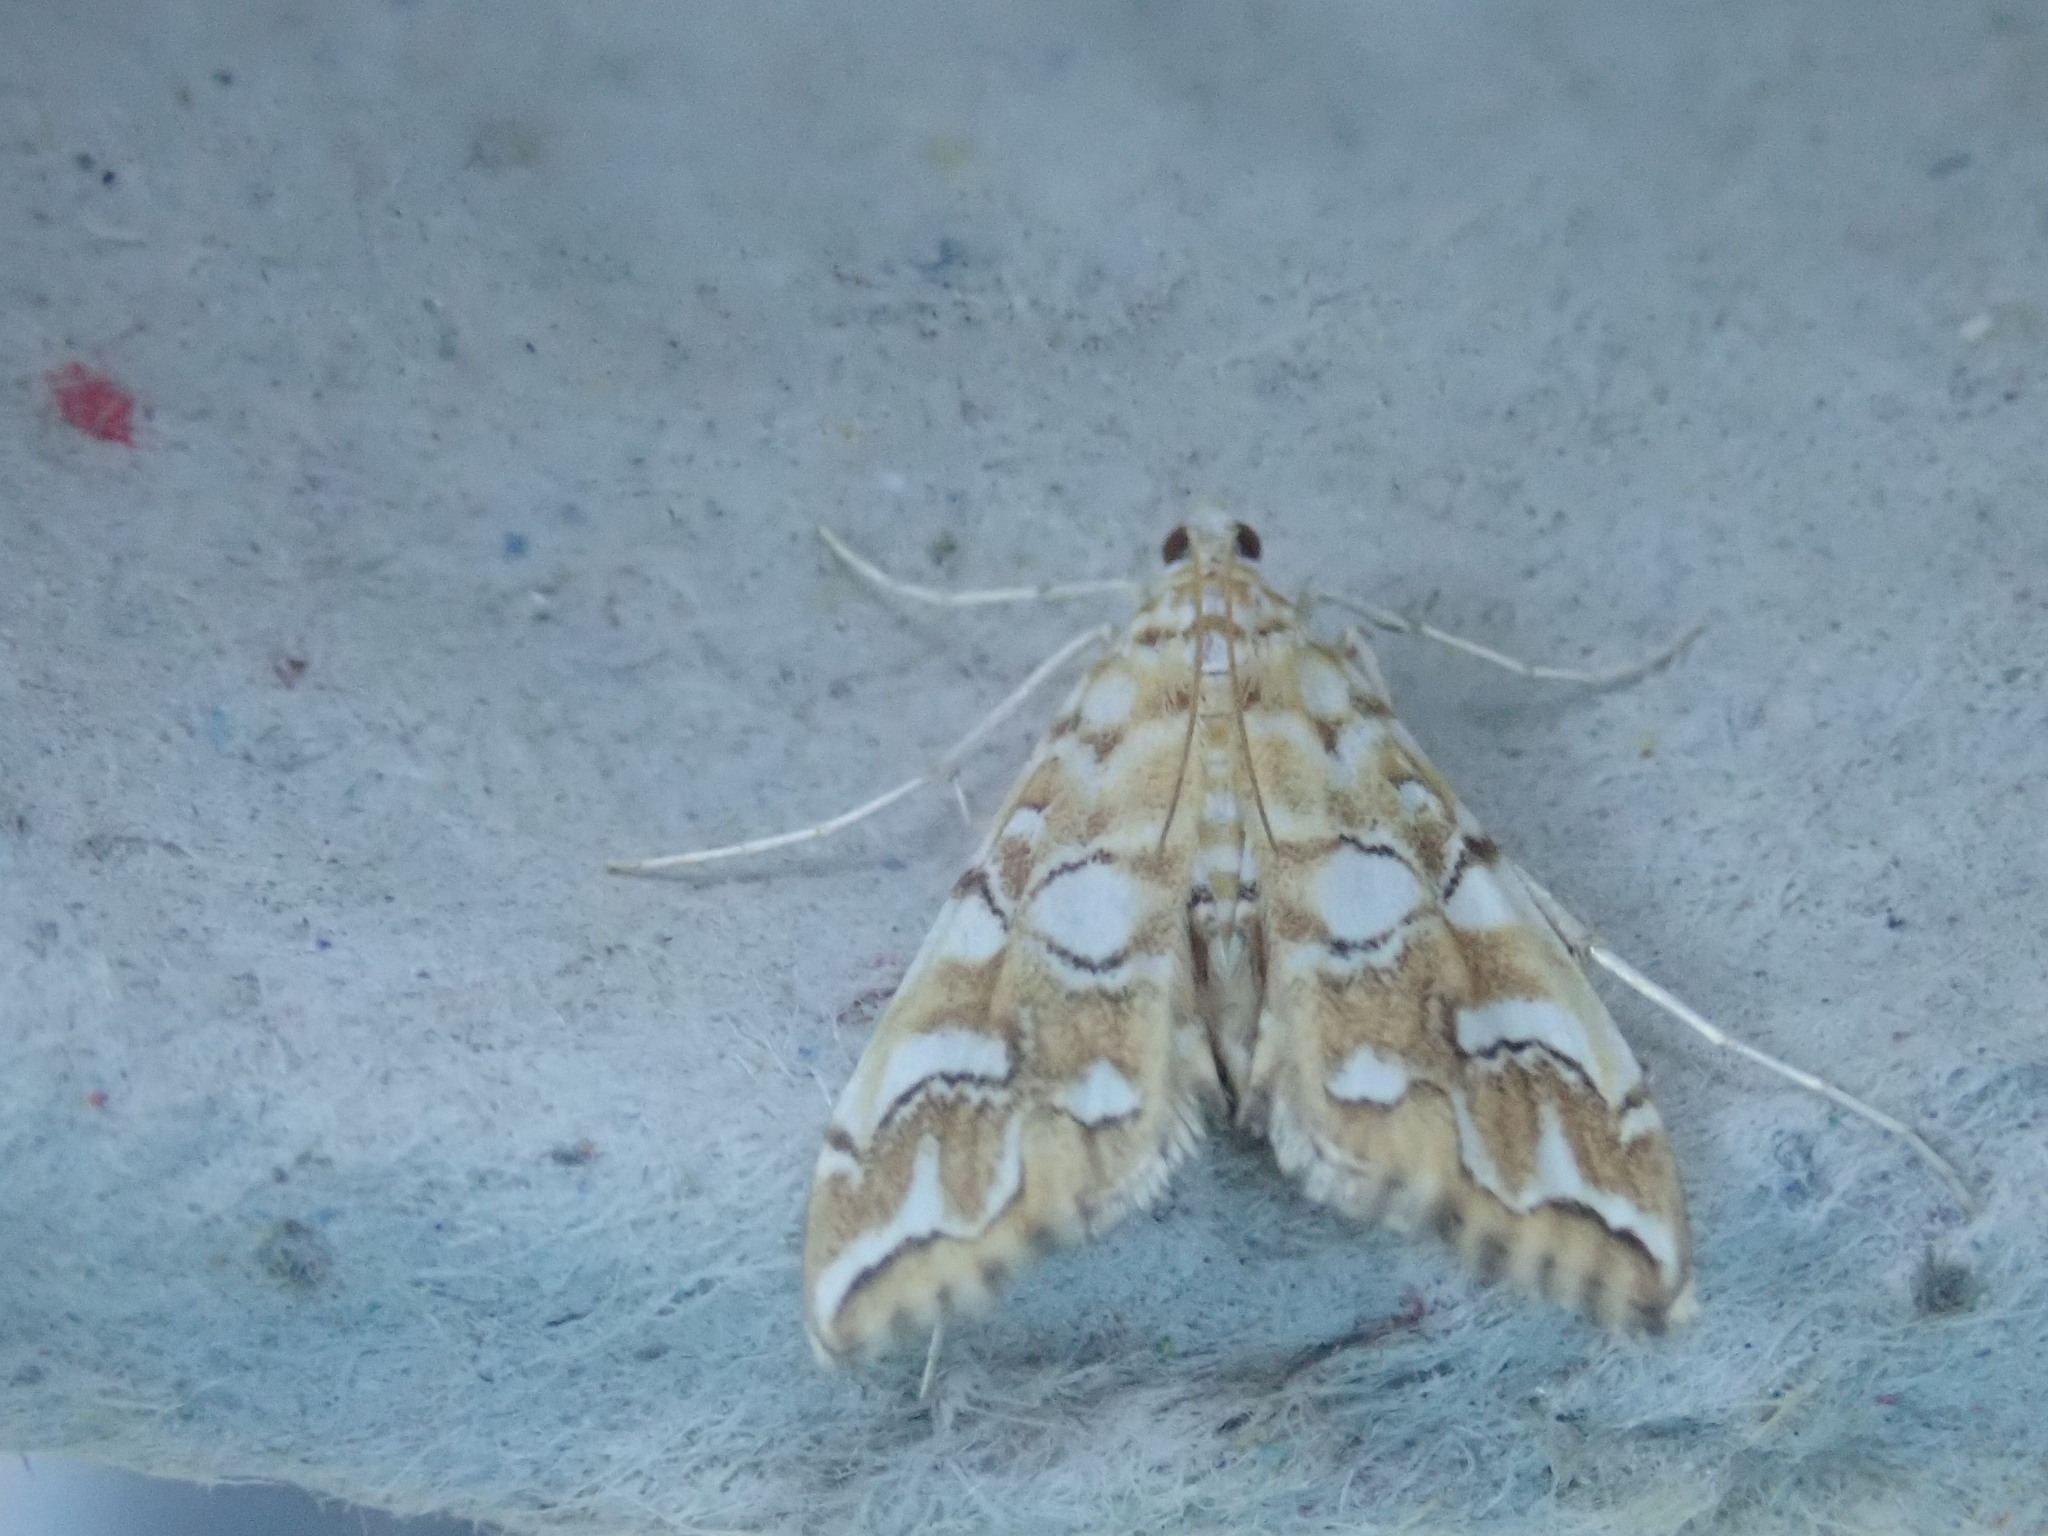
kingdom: Animalia
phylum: Arthropoda
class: Insecta
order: Lepidoptera
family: Crambidae
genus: Elophila
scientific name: Elophila icciusalis
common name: Pondside pyralid moth
